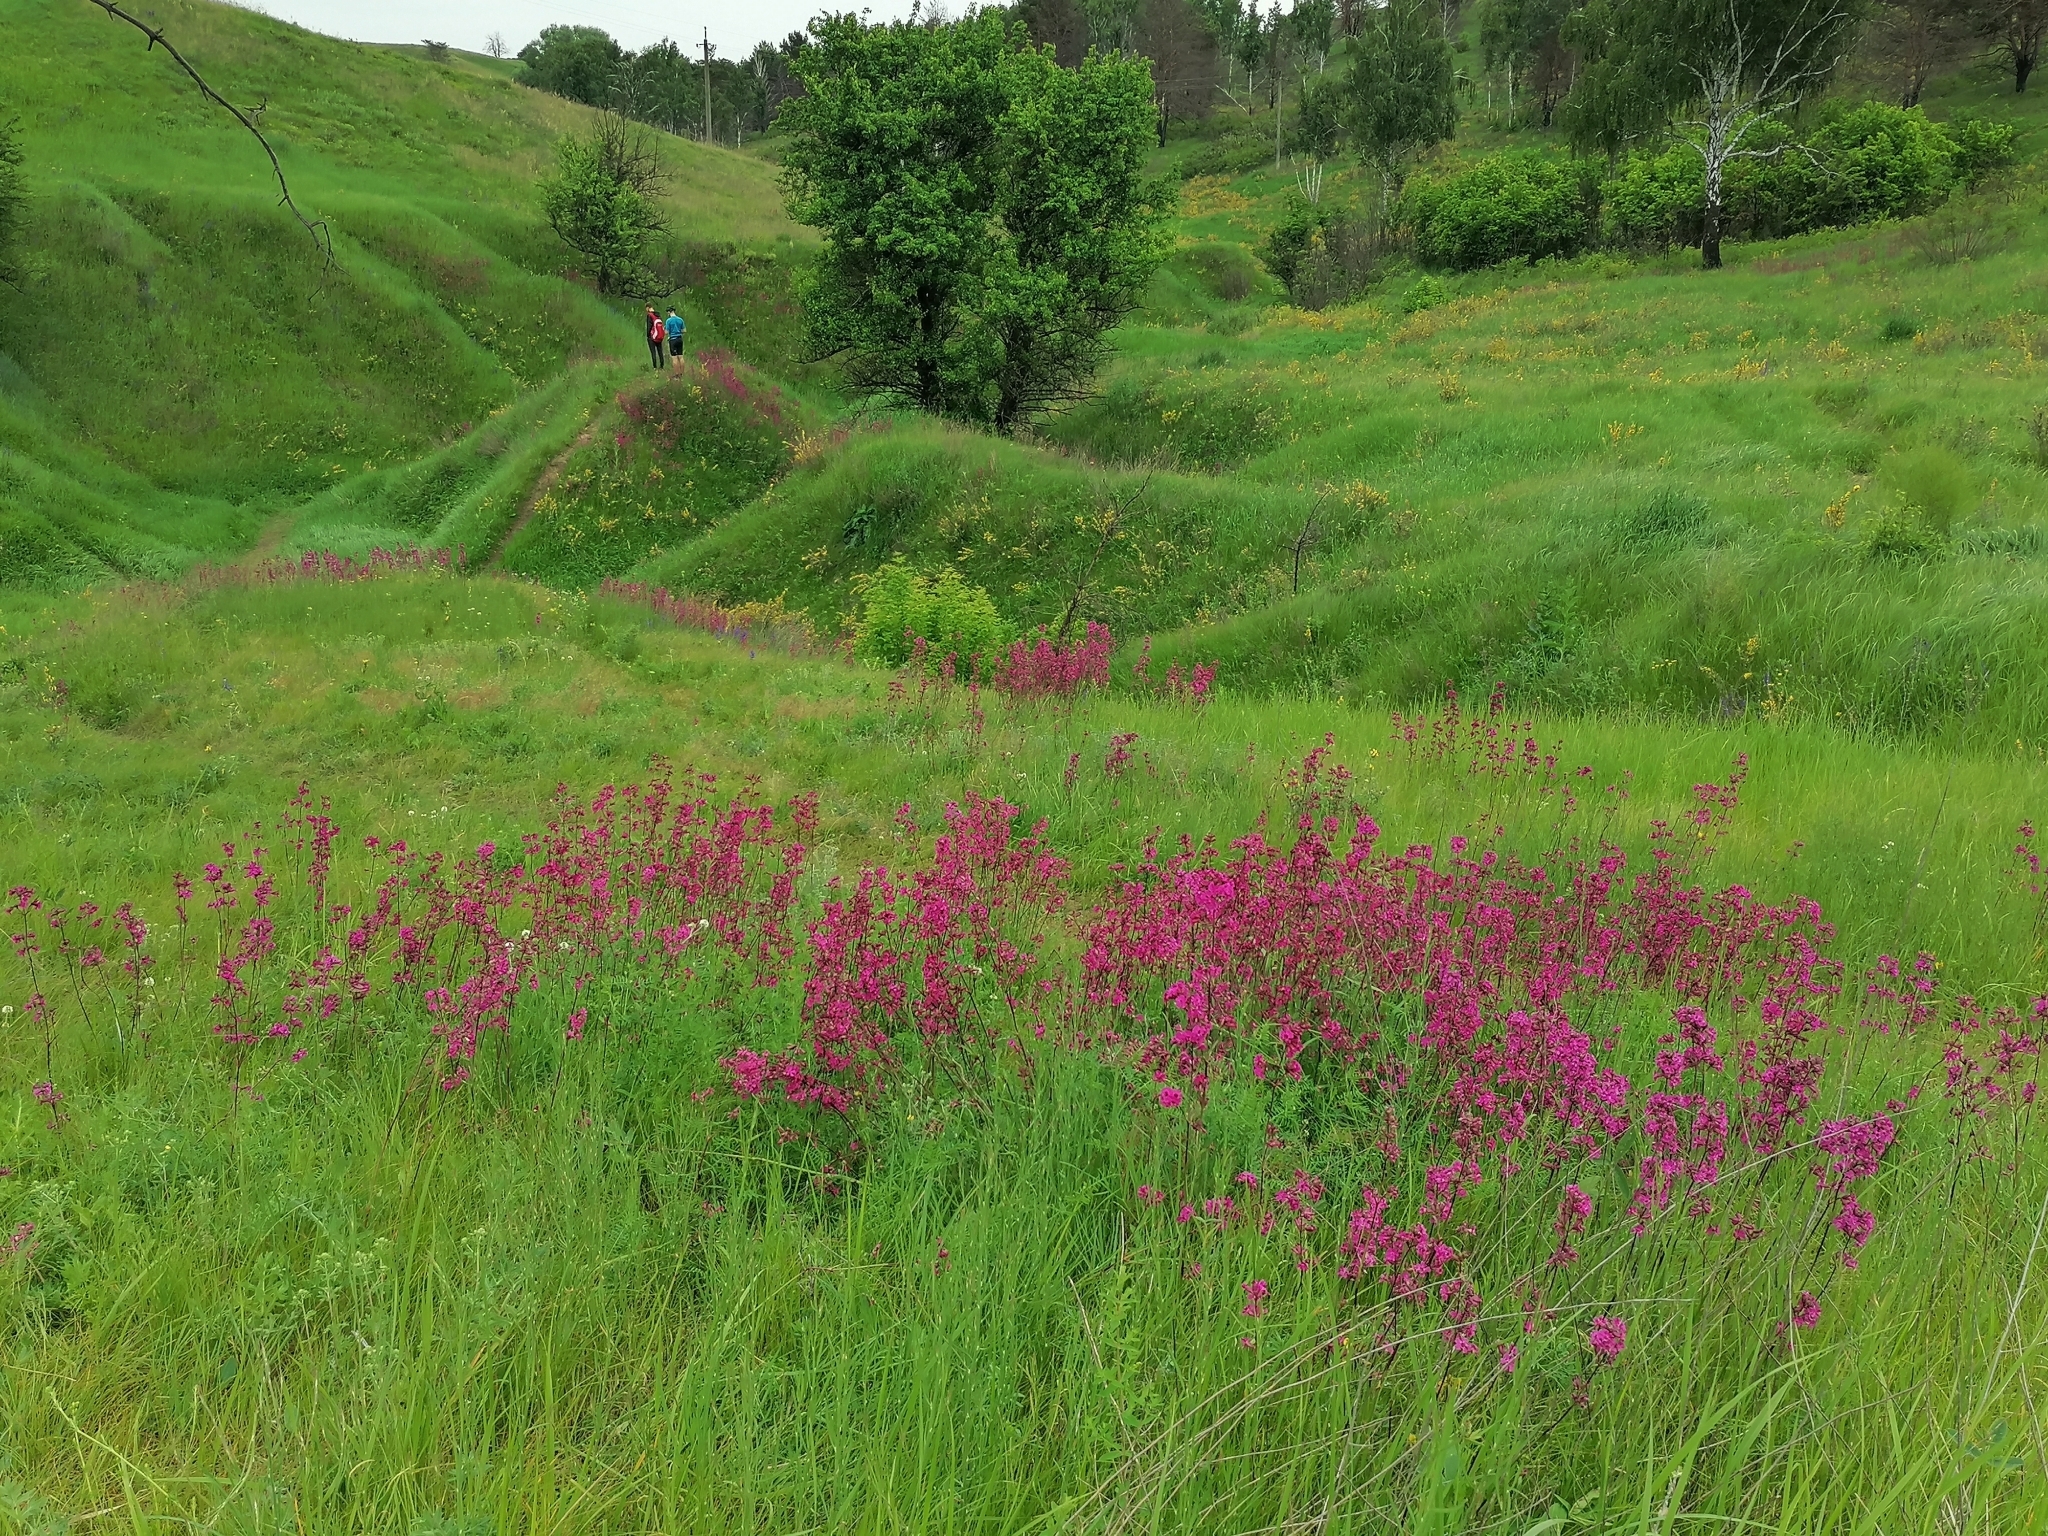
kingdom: Plantae
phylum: Tracheophyta
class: Magnoliopsida
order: Caryophyllales
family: Caryophyllaceae
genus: Viscaria
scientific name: Viscaria vulgaris
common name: Clammy campion
